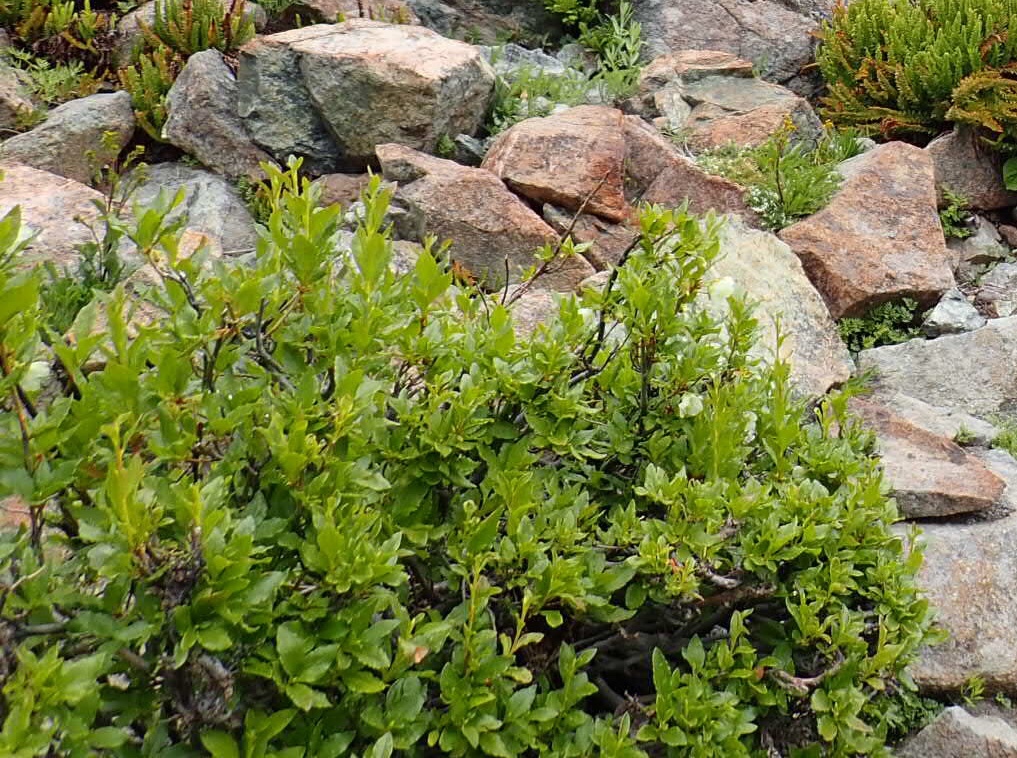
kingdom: Plantae
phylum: Tracheophyta
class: Magnoliopsida
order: Ericales
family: Ericaceae
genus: Rhododendron
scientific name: Rhododendron albiflorum
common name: White rhododendron
